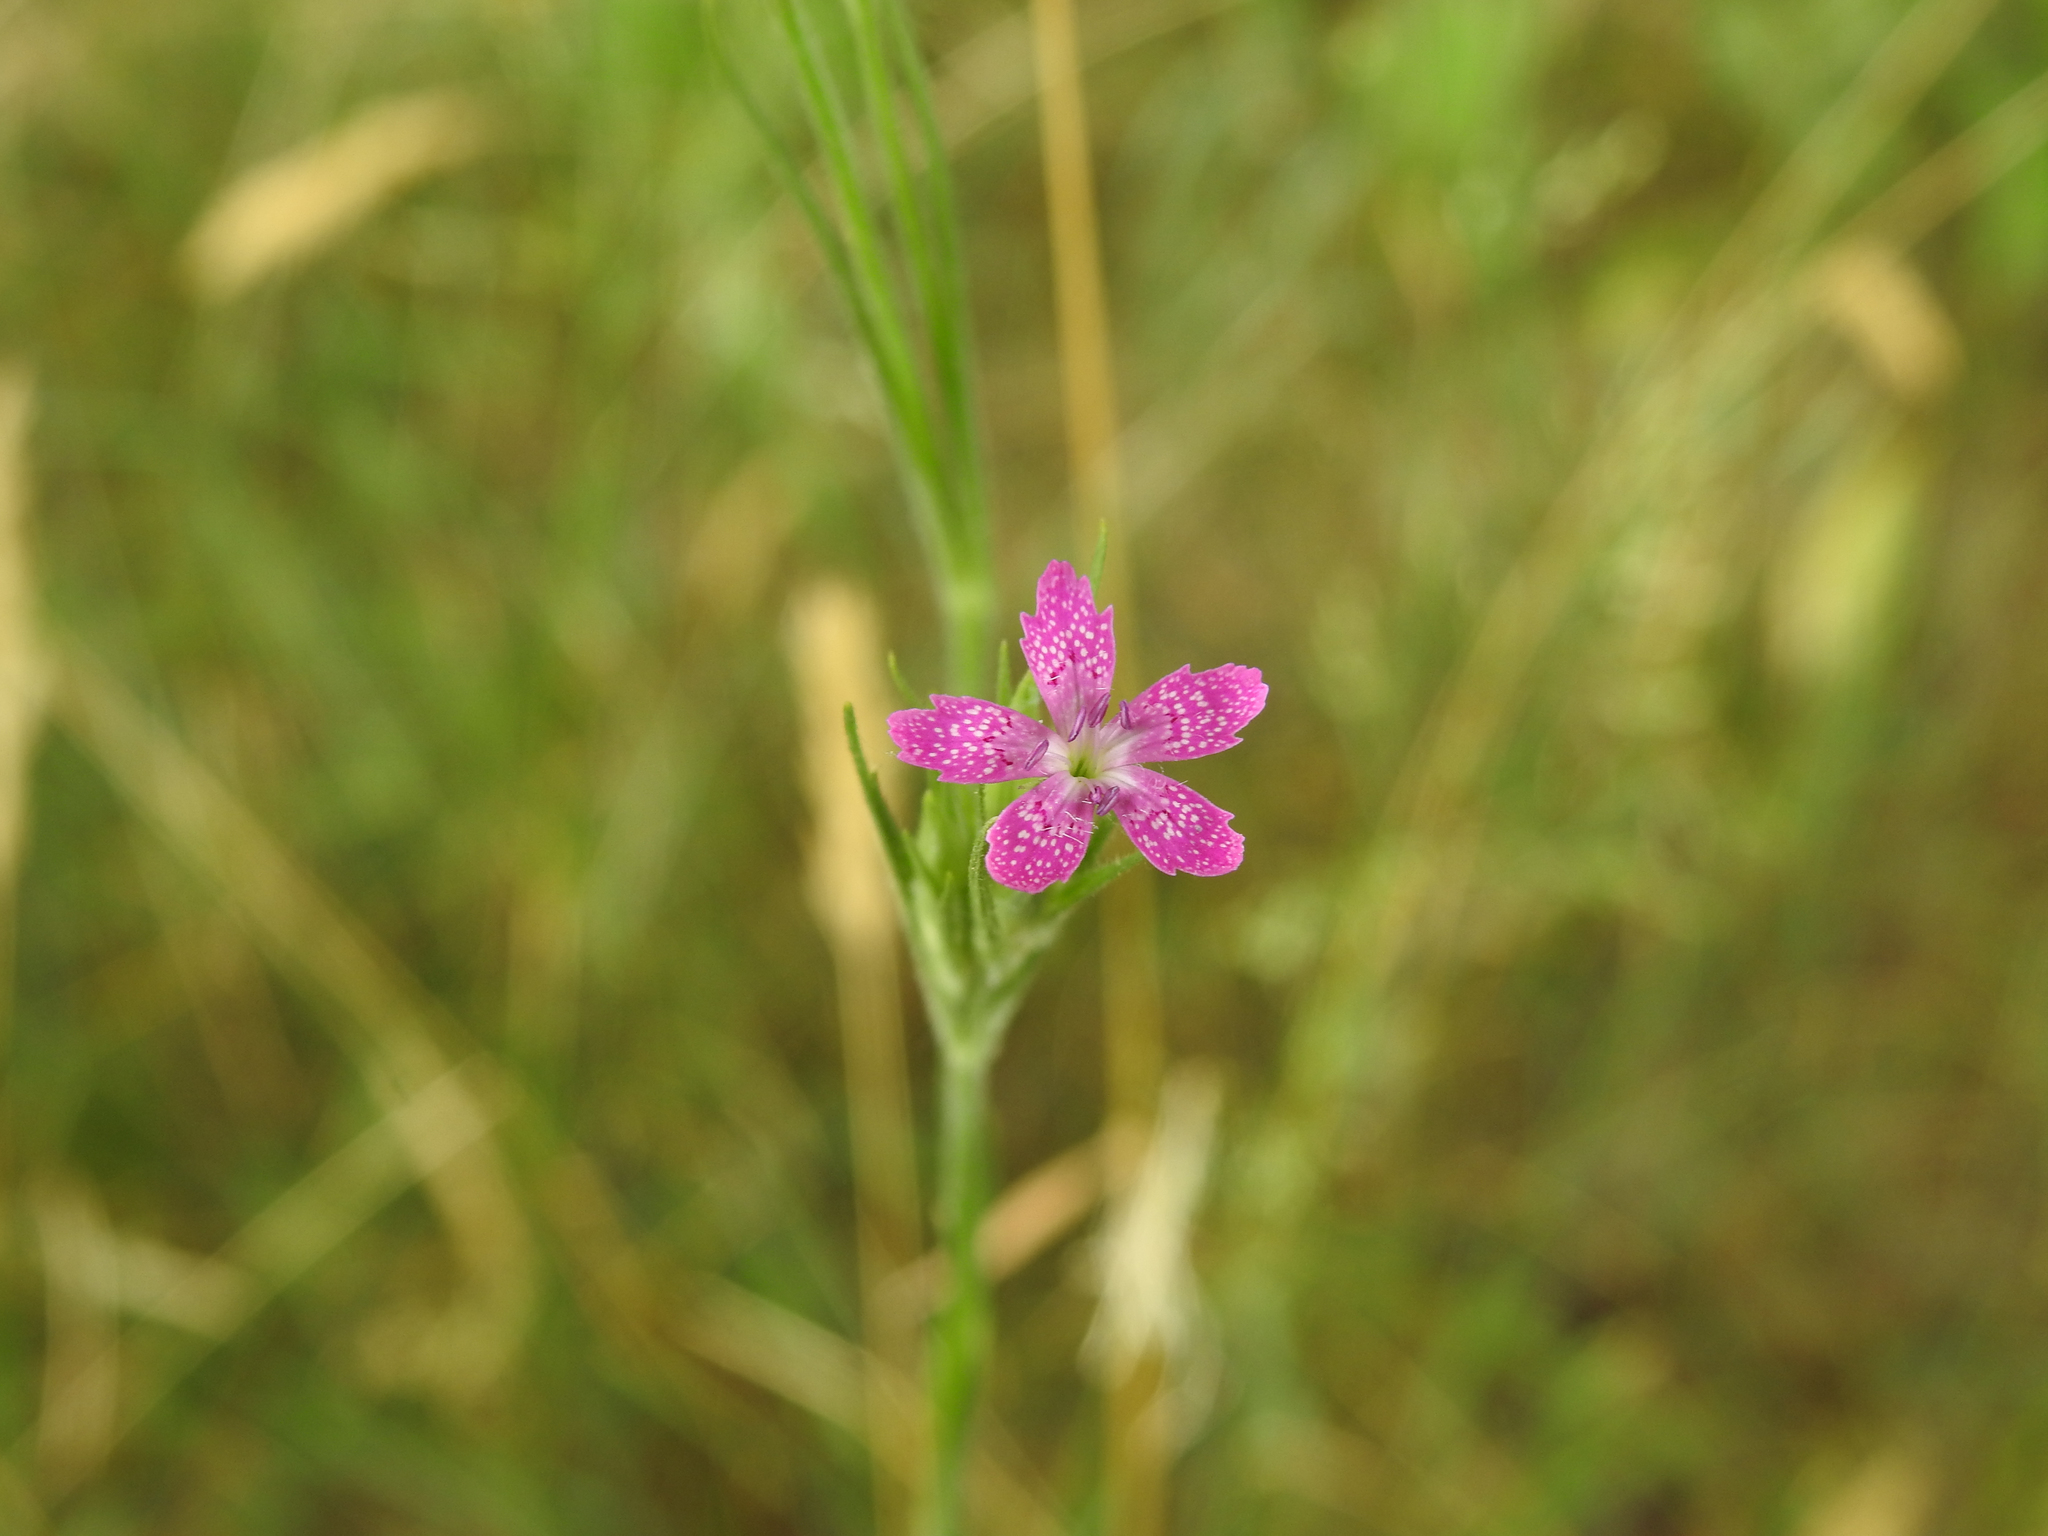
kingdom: Plantae
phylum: Tracheophyta
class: Magnoliopsida
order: Caryophyllales
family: Caryophyllaceae
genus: Dianthus
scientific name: Dianthus armeria
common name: Deptford pink
